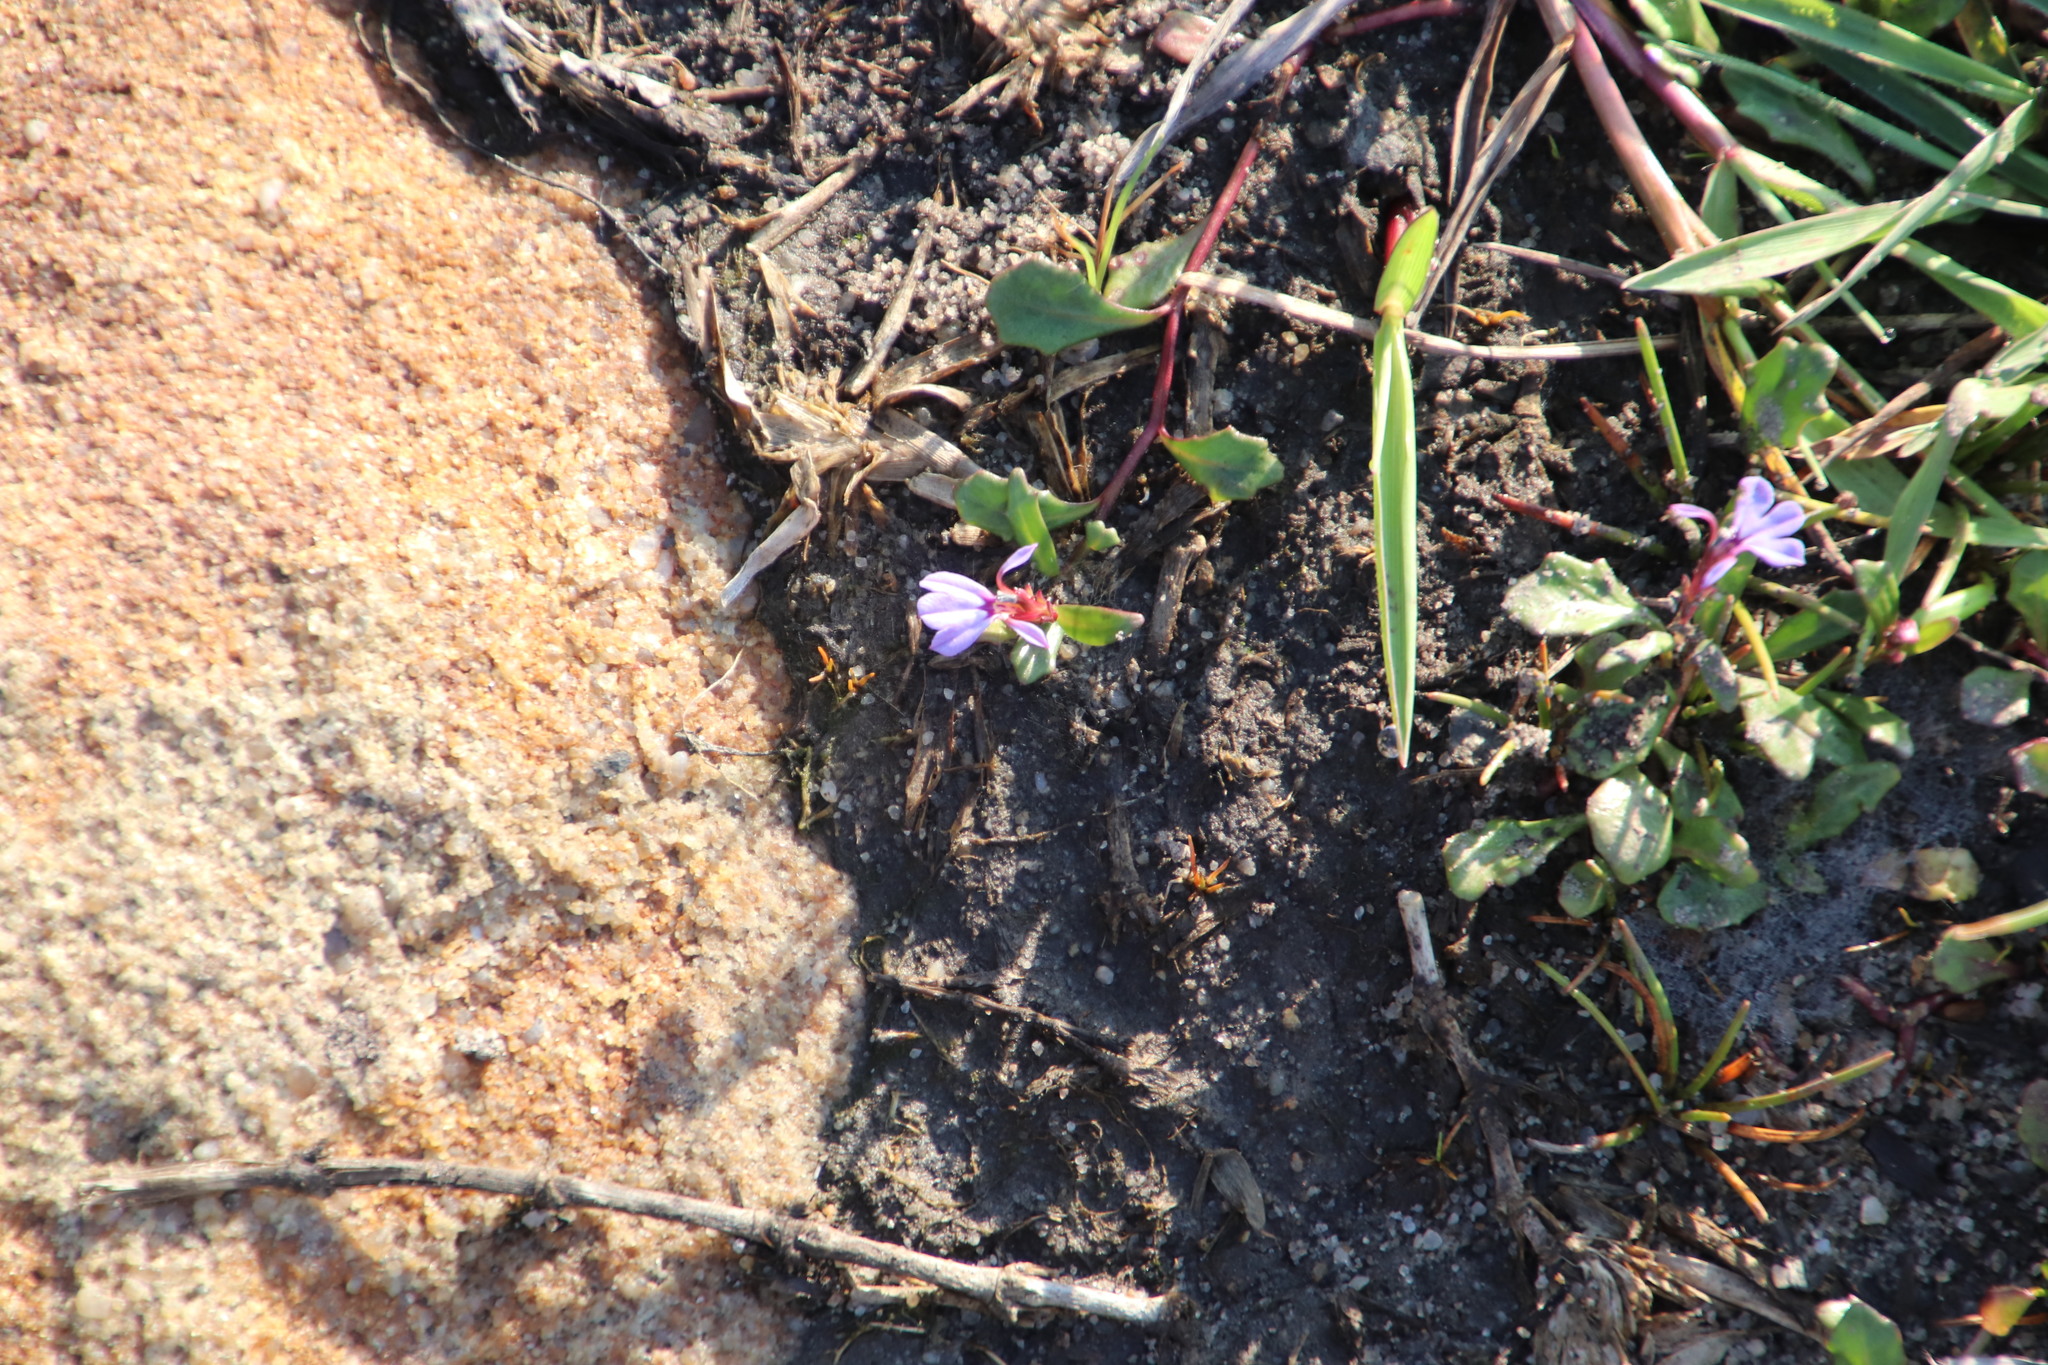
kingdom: Plantae
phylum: Tracheophyta
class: Magnoliopsida
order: Asterales
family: Campanulaceae
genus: Lobelia
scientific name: Lobelia anceps
